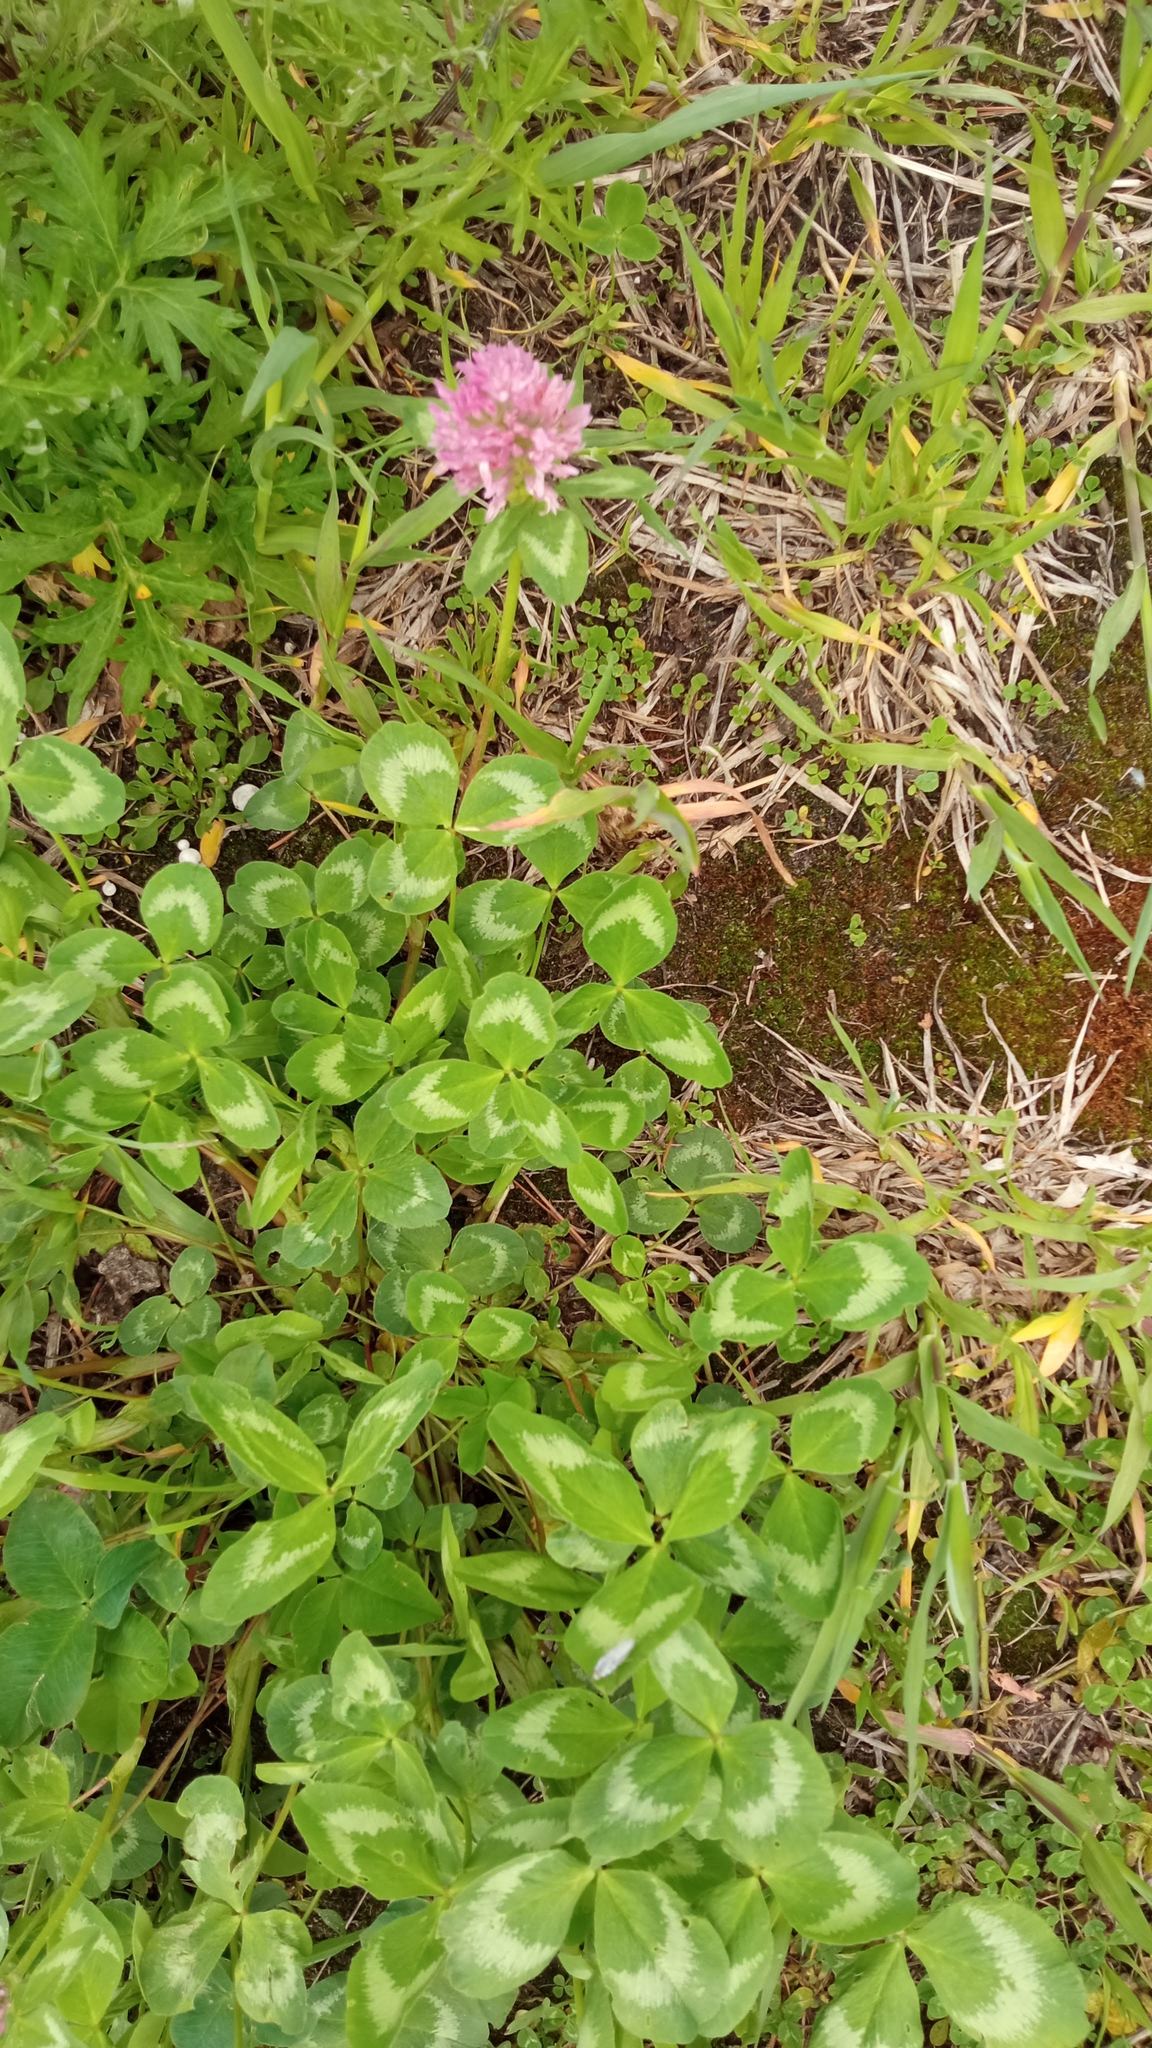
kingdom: Plantae
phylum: Tracheophyta
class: Magnoliopsida
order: Fabales
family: Fabaceae
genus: Trifolium
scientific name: Trifolium pratense
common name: Red clover
